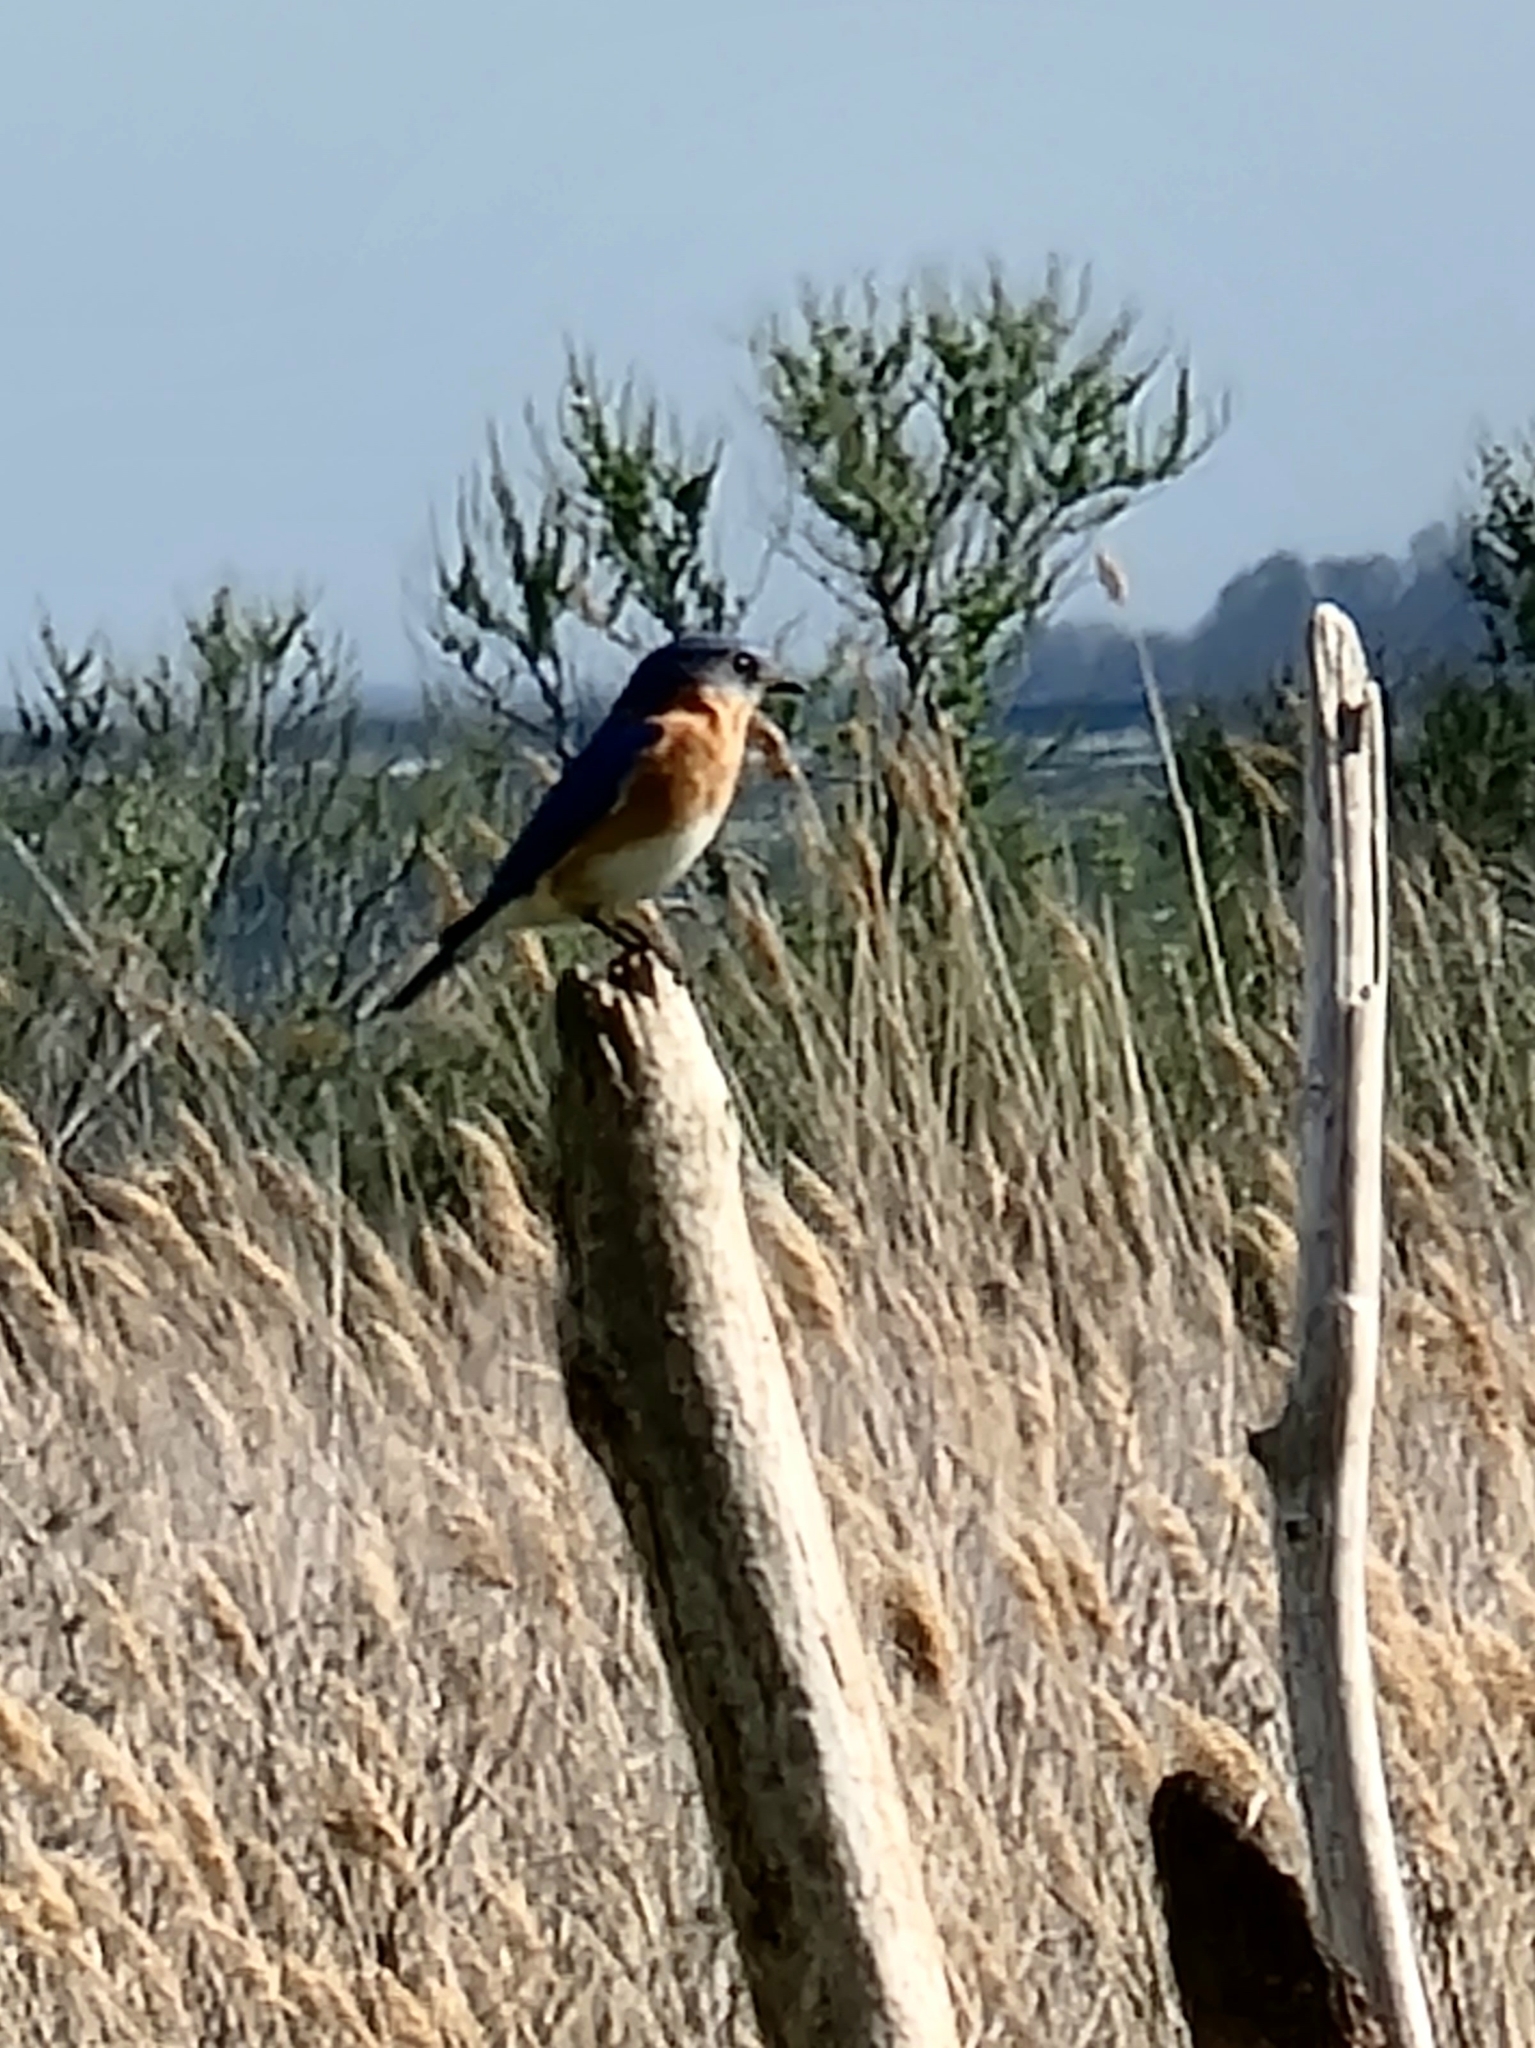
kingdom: Animalia
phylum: Chordata
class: Aves
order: Passeriformes
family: Turdidae
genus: Sialia
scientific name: Sialia sialis
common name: Eastern bluebird
